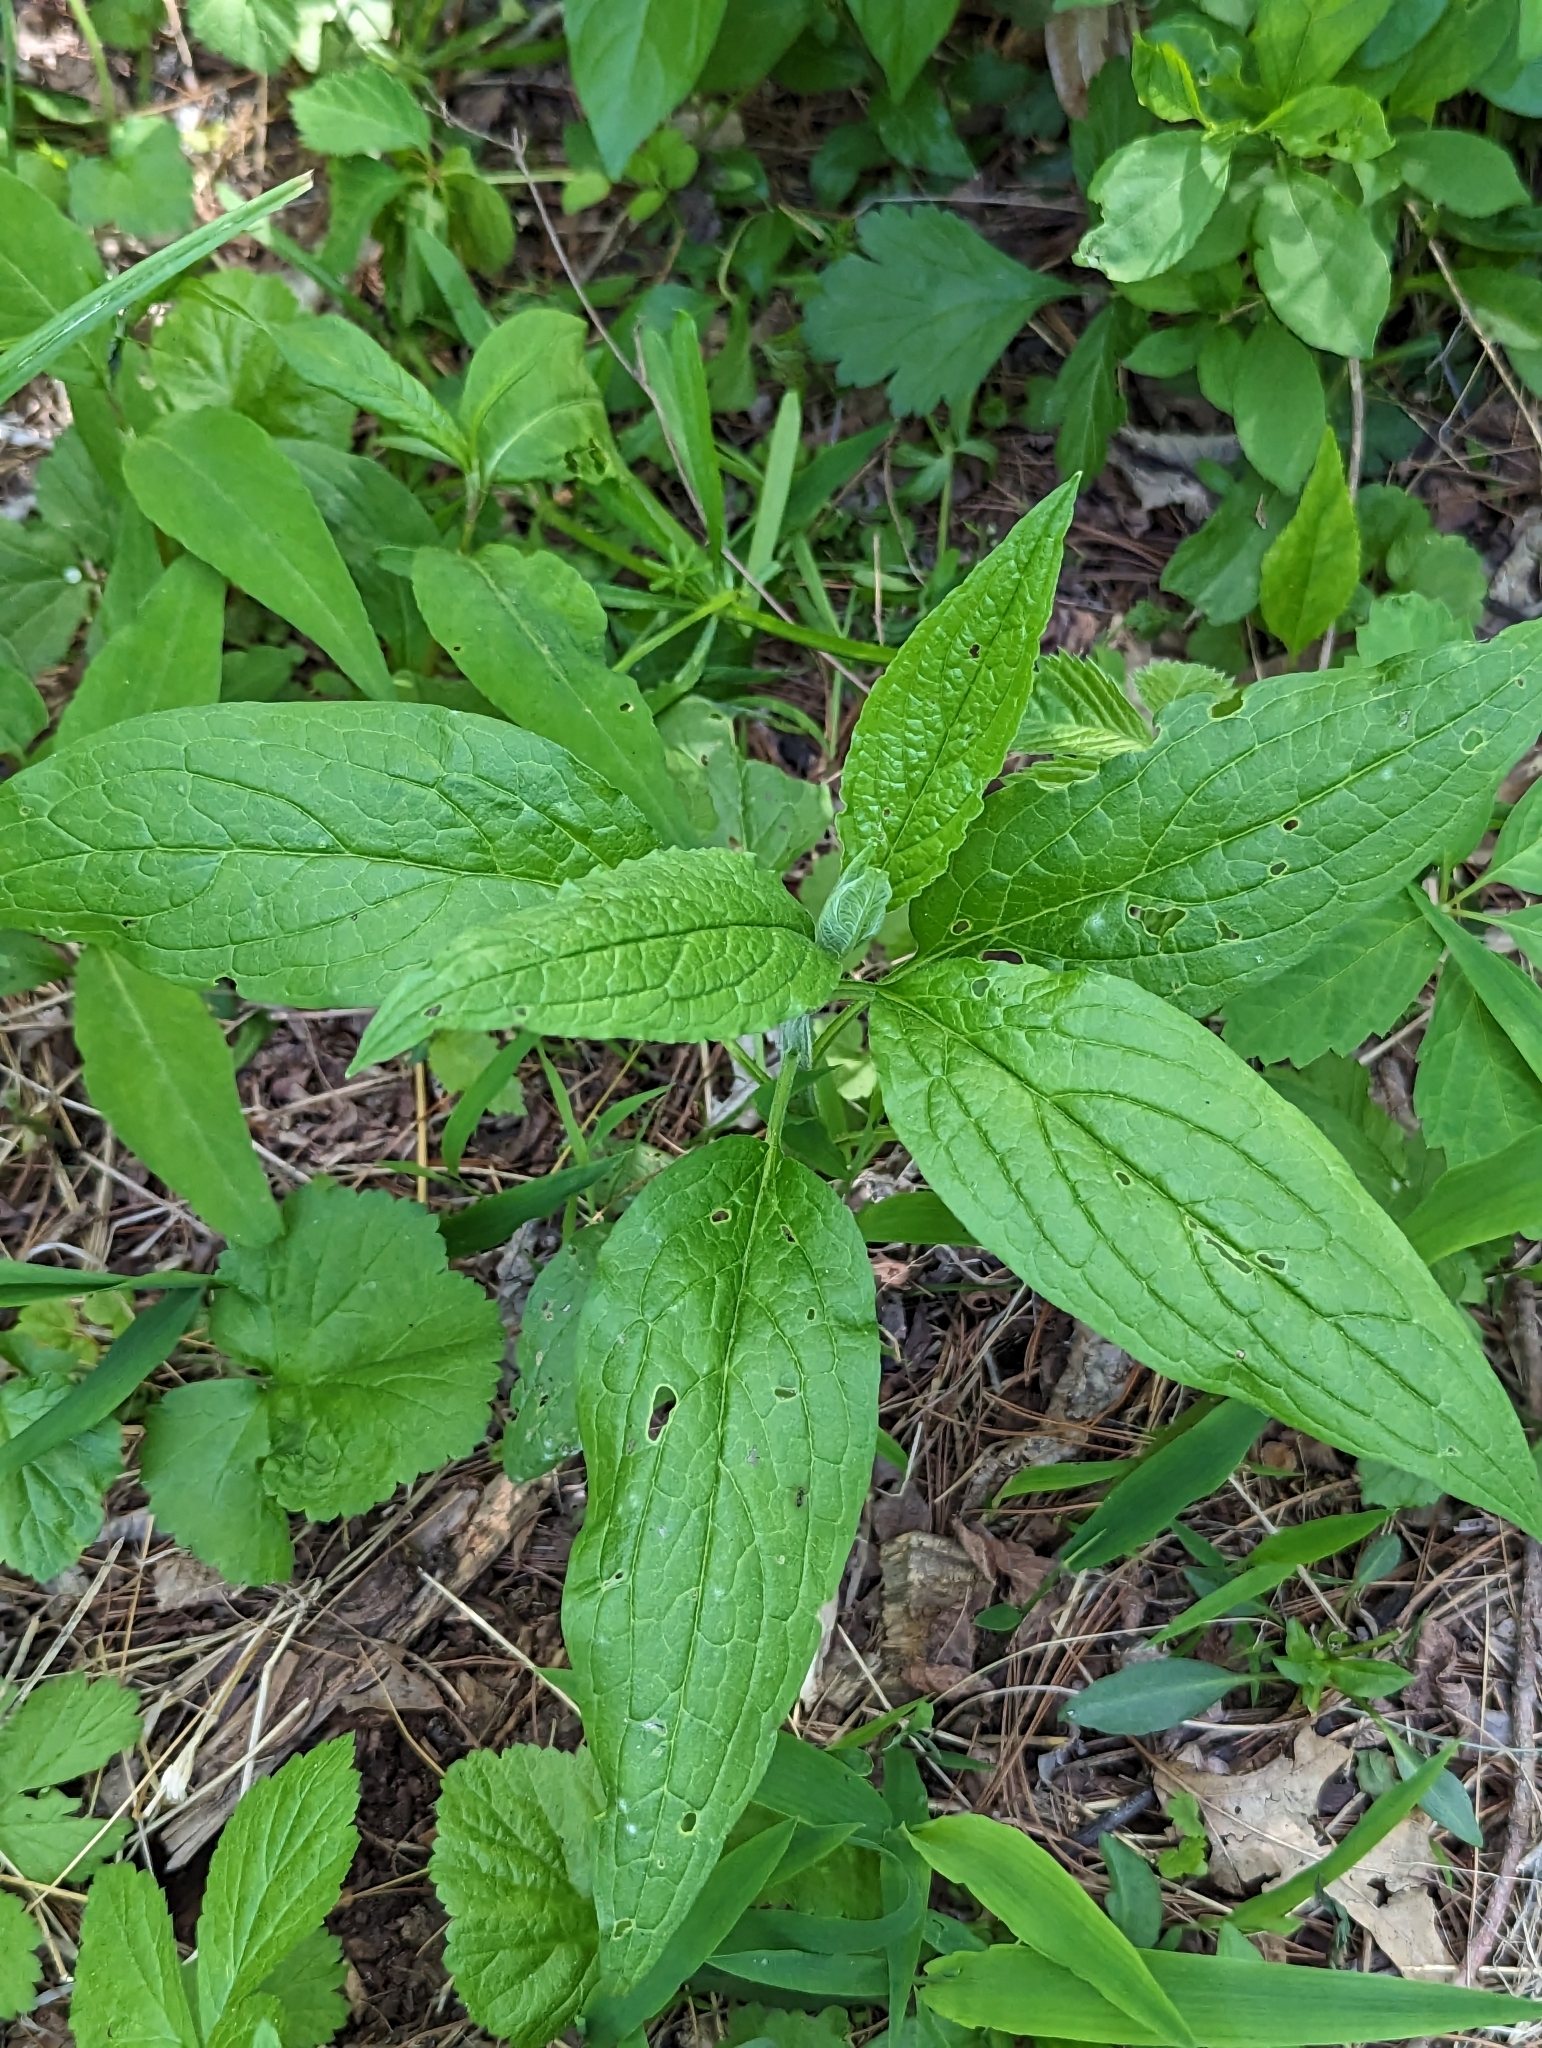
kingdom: Plantae
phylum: Tracheophyta
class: Magnoliopsida
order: Boraginales
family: Boraginaceae
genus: Hackelia
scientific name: Hackelia virginiana
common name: Beggar's-lice
